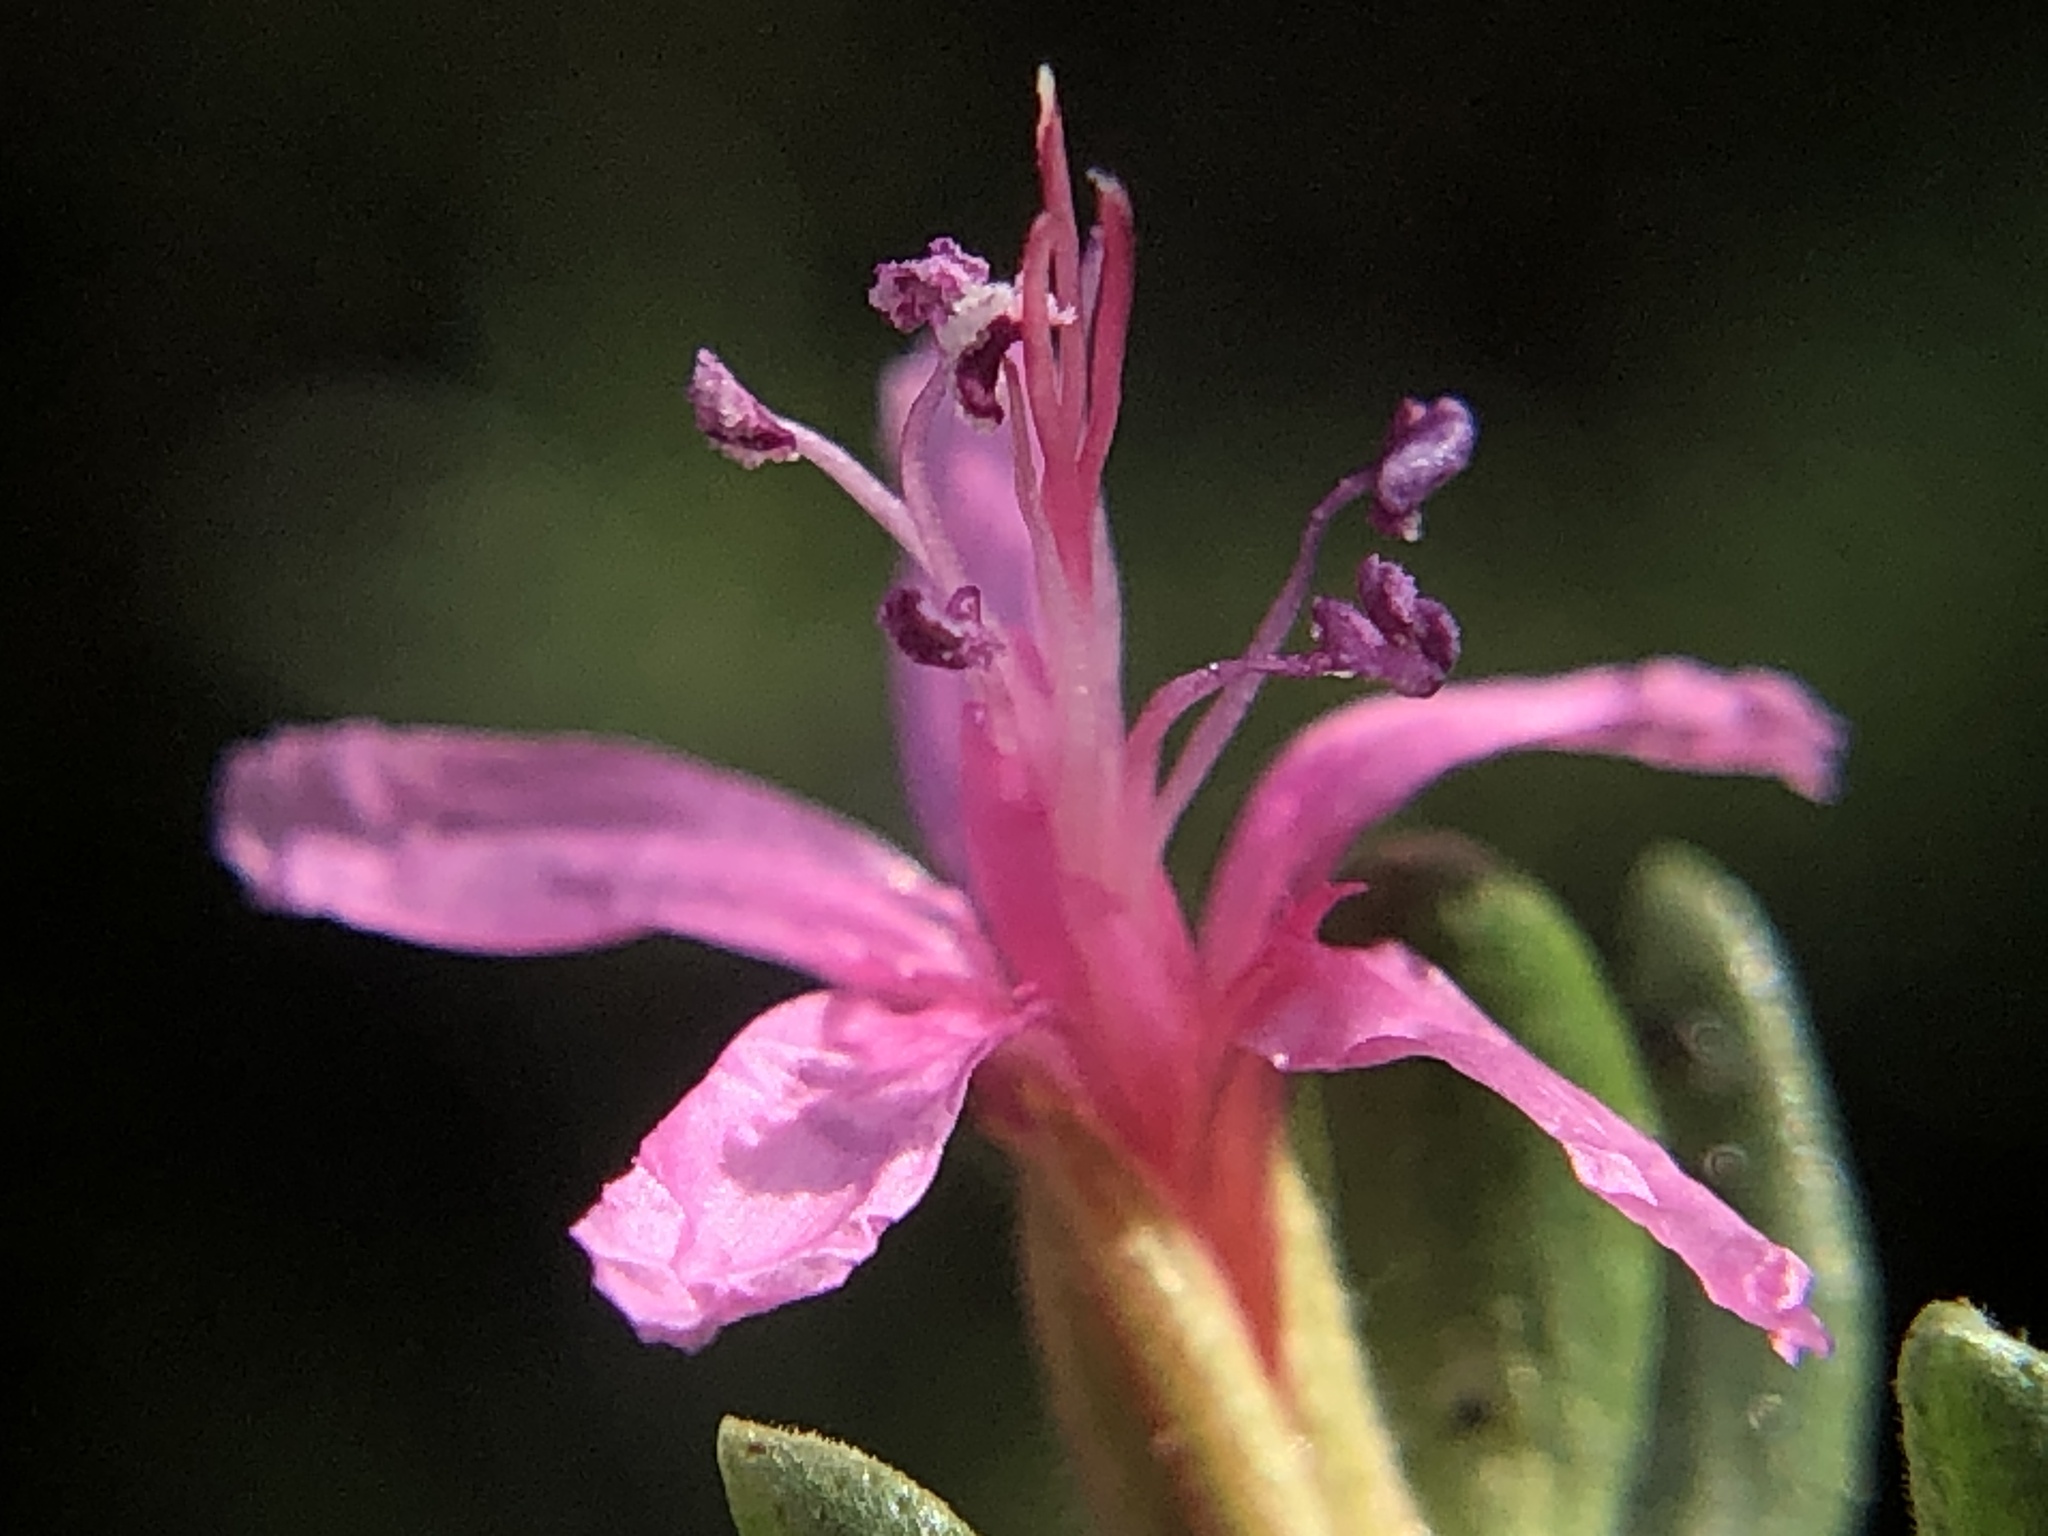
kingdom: Plantae
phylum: Tracheophyta
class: Magnoliopsida
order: Caryophyllales
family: Frankeniaceae
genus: Frankenia
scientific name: Frankenia salina
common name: Alkali seaheath
